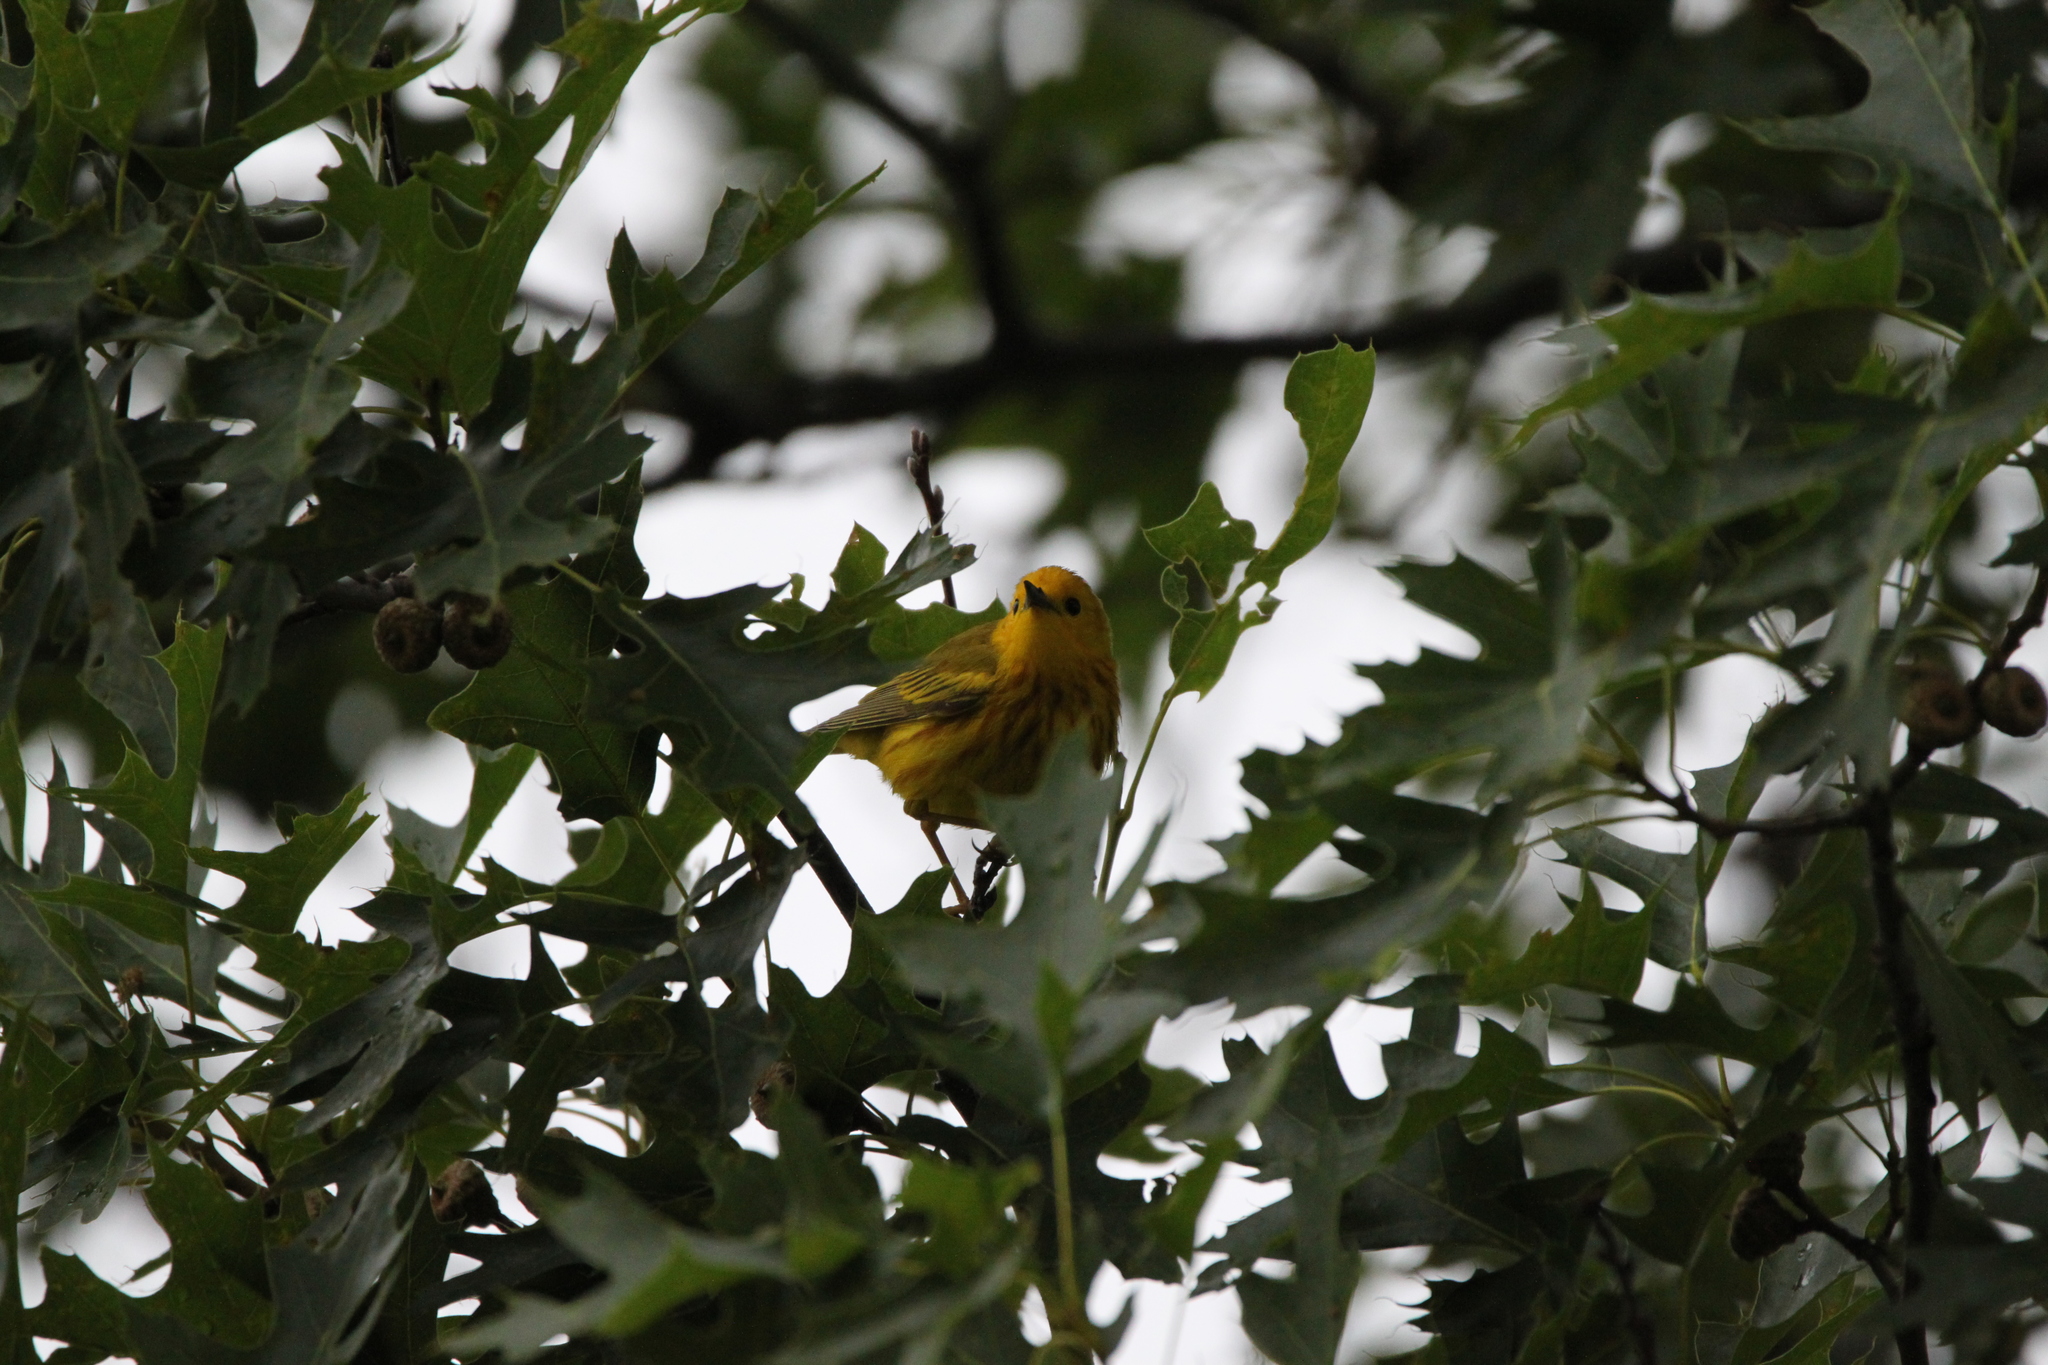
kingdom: Animalia
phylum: Chordata
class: Aves
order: Passeriformes
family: Parulidae
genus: Setophaga
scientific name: Setophaga petechia
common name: Yellow warbler
